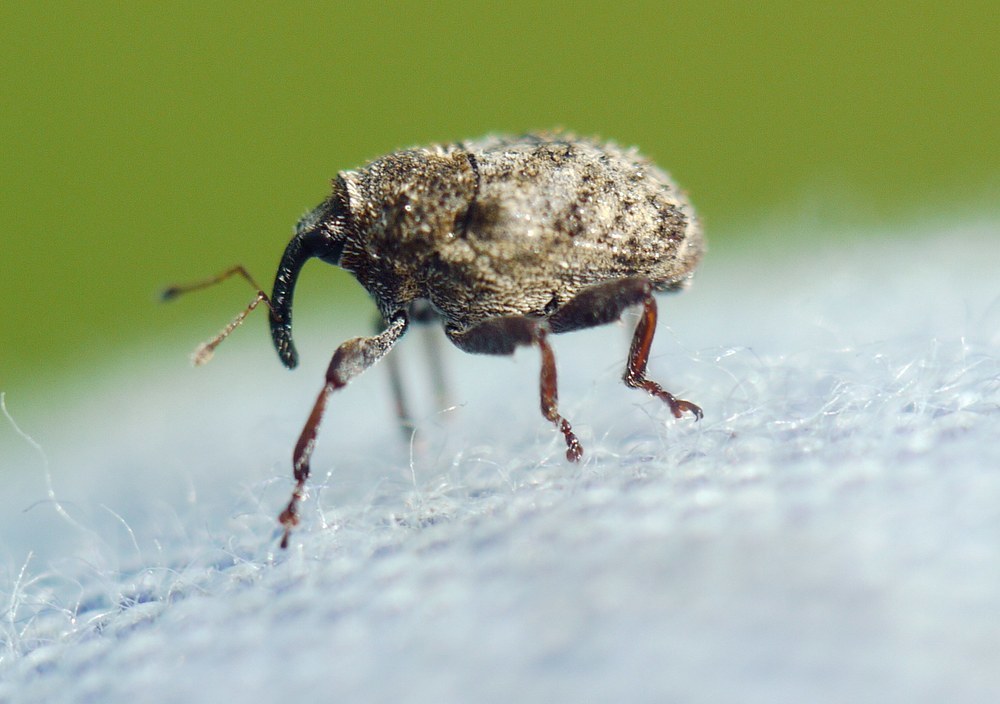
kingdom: Animalia
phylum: Arthropoda
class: Insecta
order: Coleoptera
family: Curculionidae
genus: Trichosirocalus
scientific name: Trichosirocalus horridus
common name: Musk thistle rosette weevil
